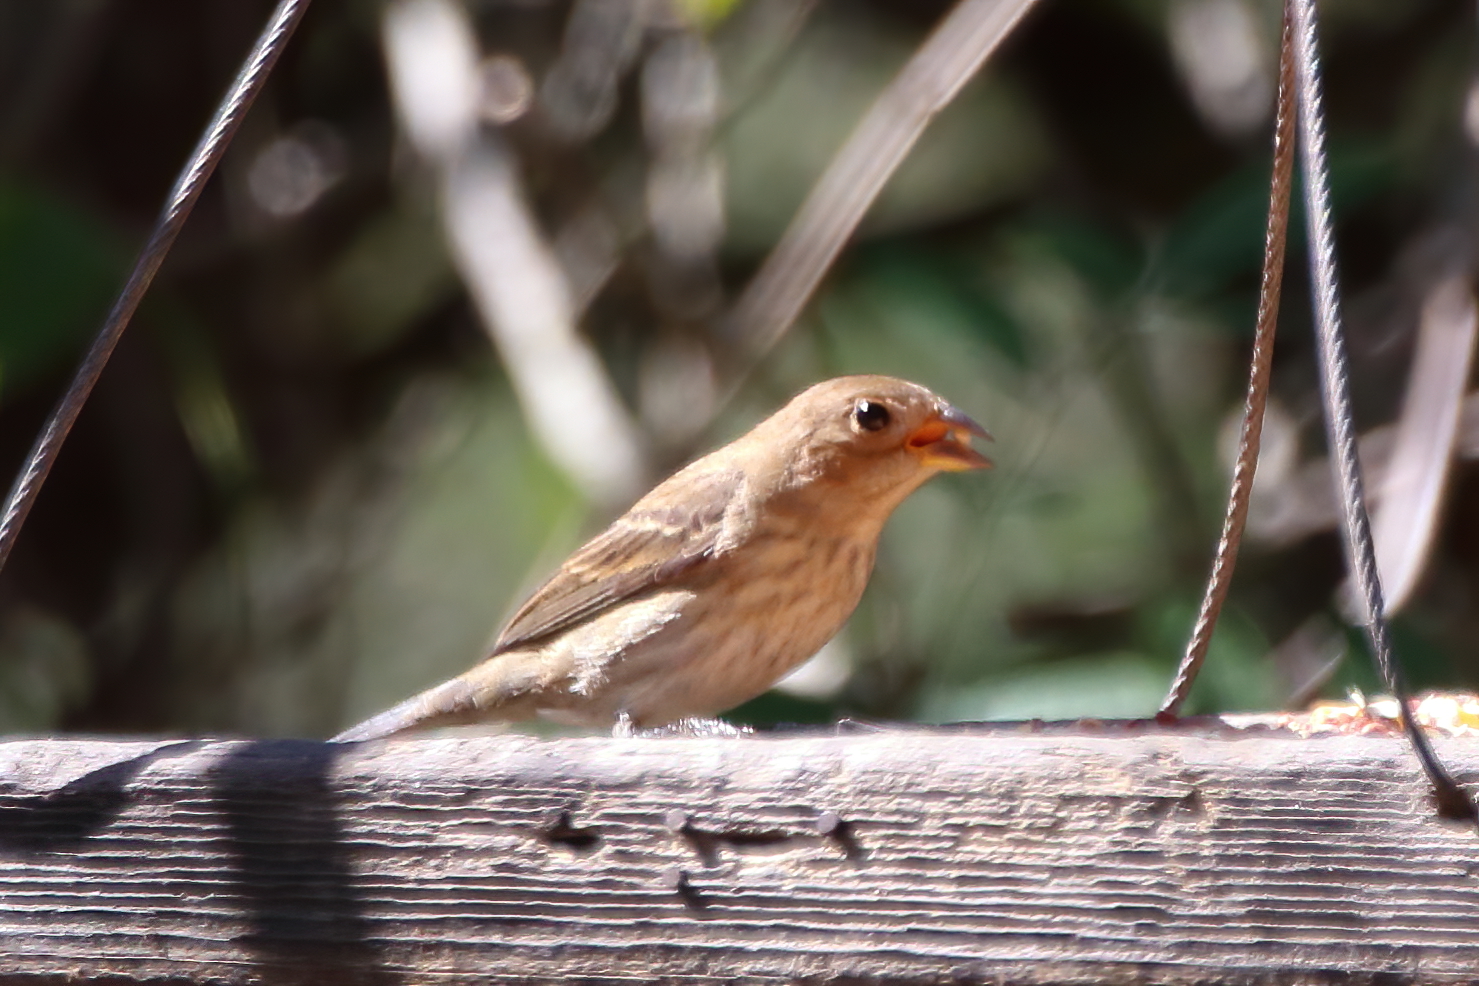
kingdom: Animalia
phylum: Chordata
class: Aves
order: Passeriformes
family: Cardinalidae
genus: Passerina
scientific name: Passerina cyanea
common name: Indigo bunting
